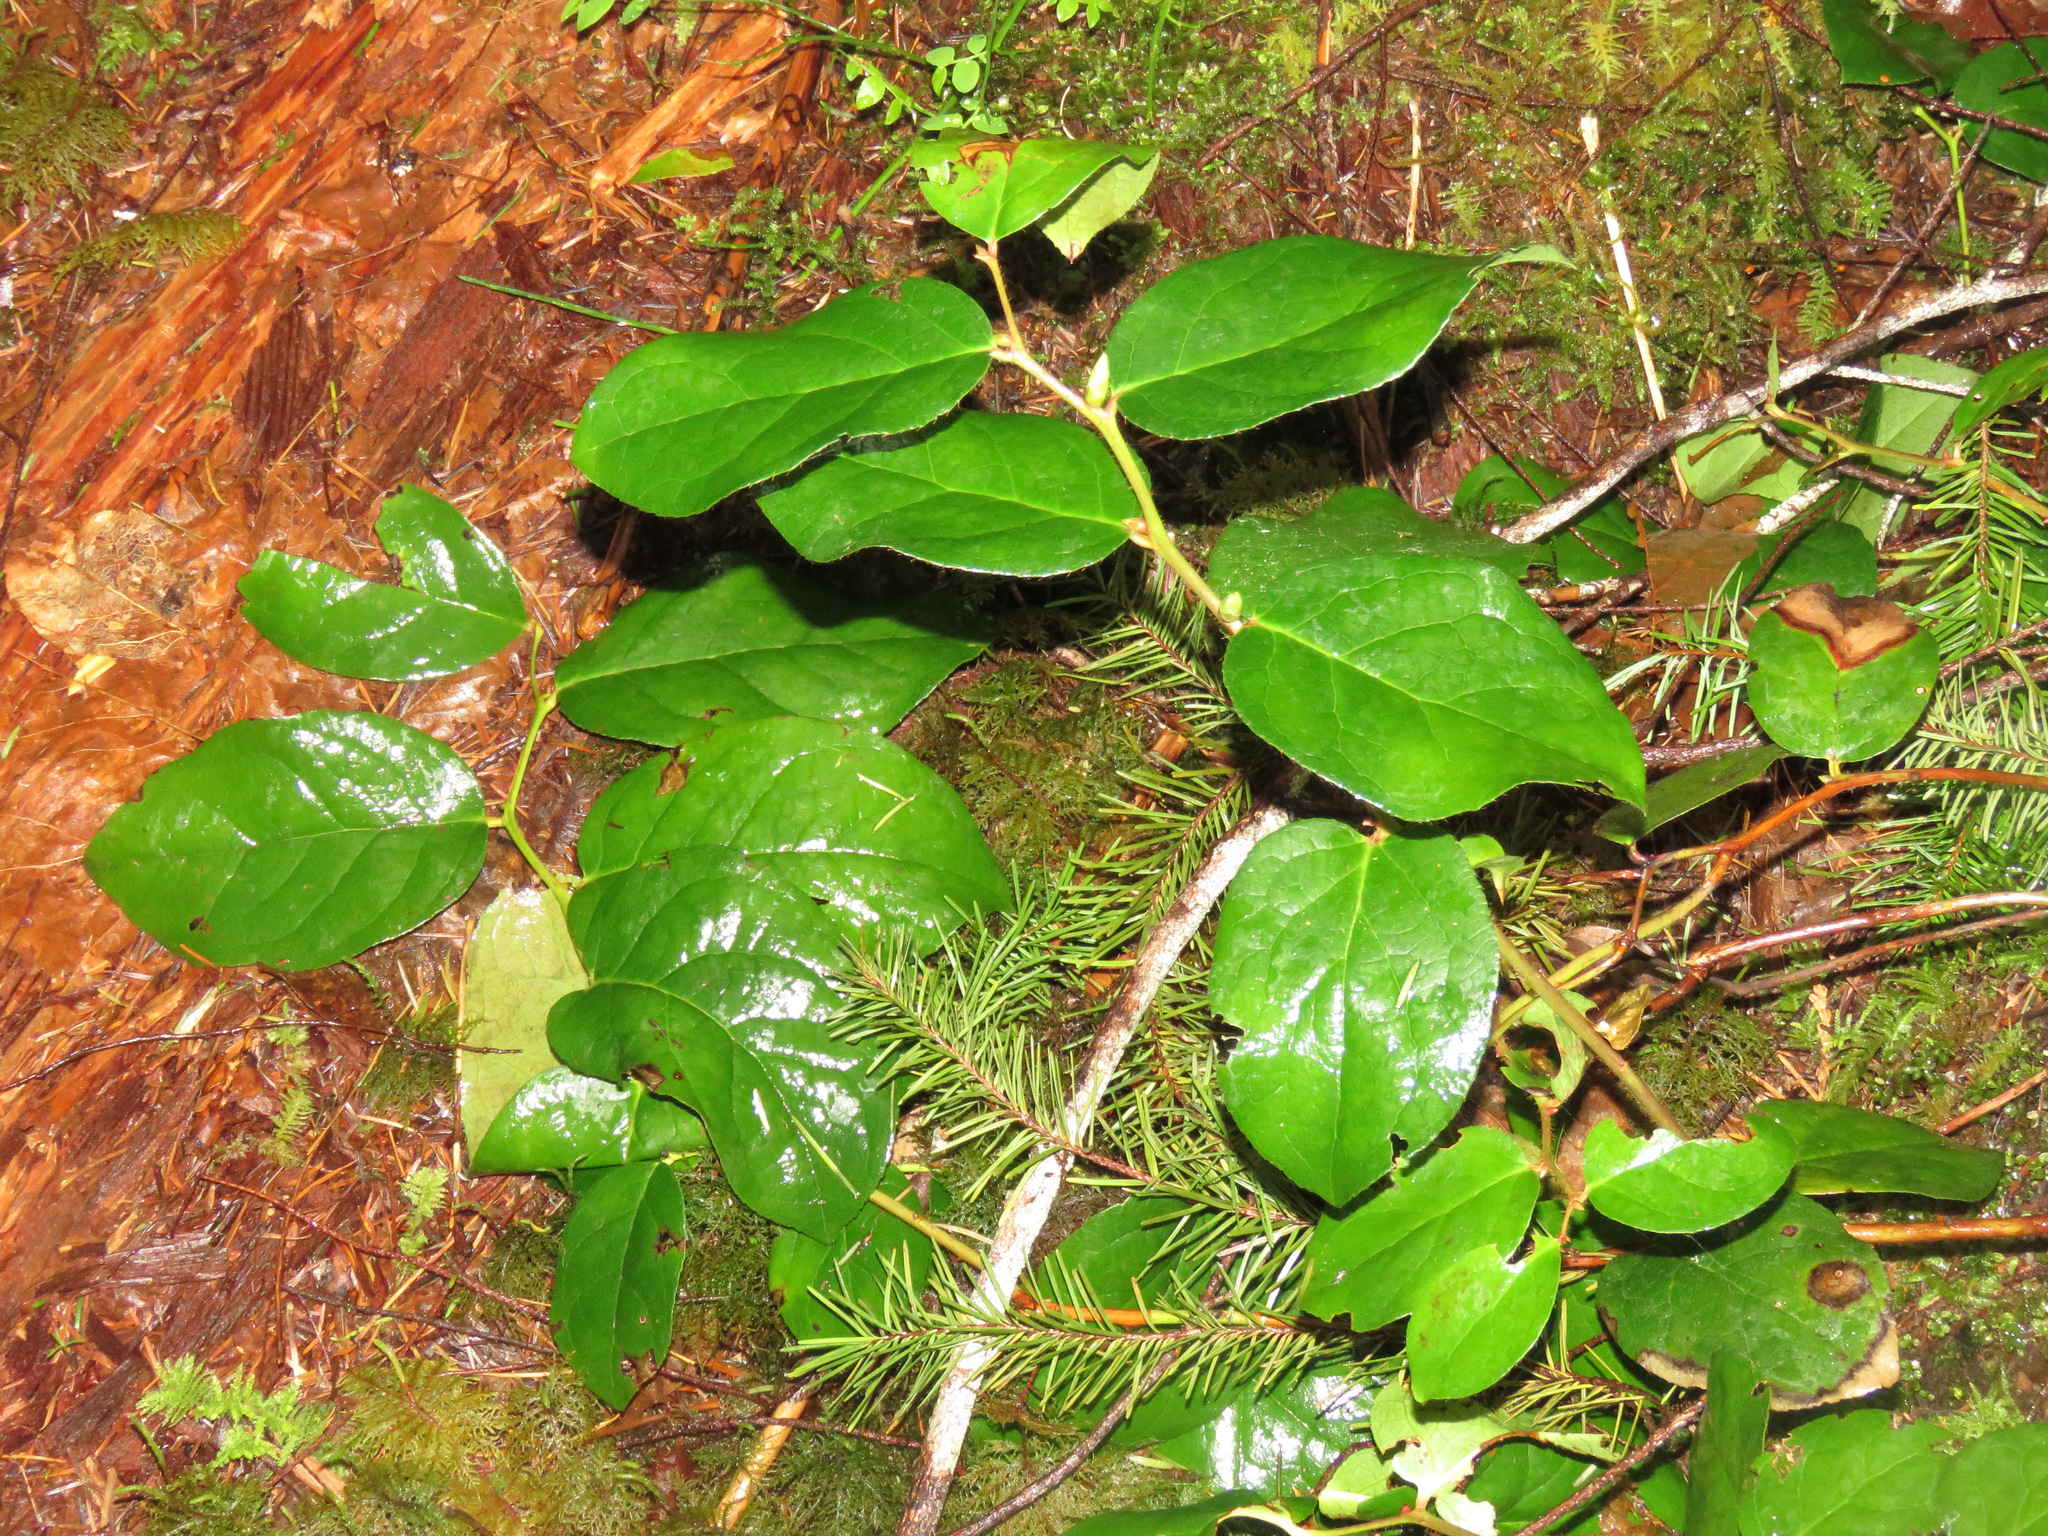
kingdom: Plantae
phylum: Tracheophyta
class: Magnoliopsida
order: Ericales
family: Ericaceae
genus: Gaultheria
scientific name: Gaultheria shallon
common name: Shallon
